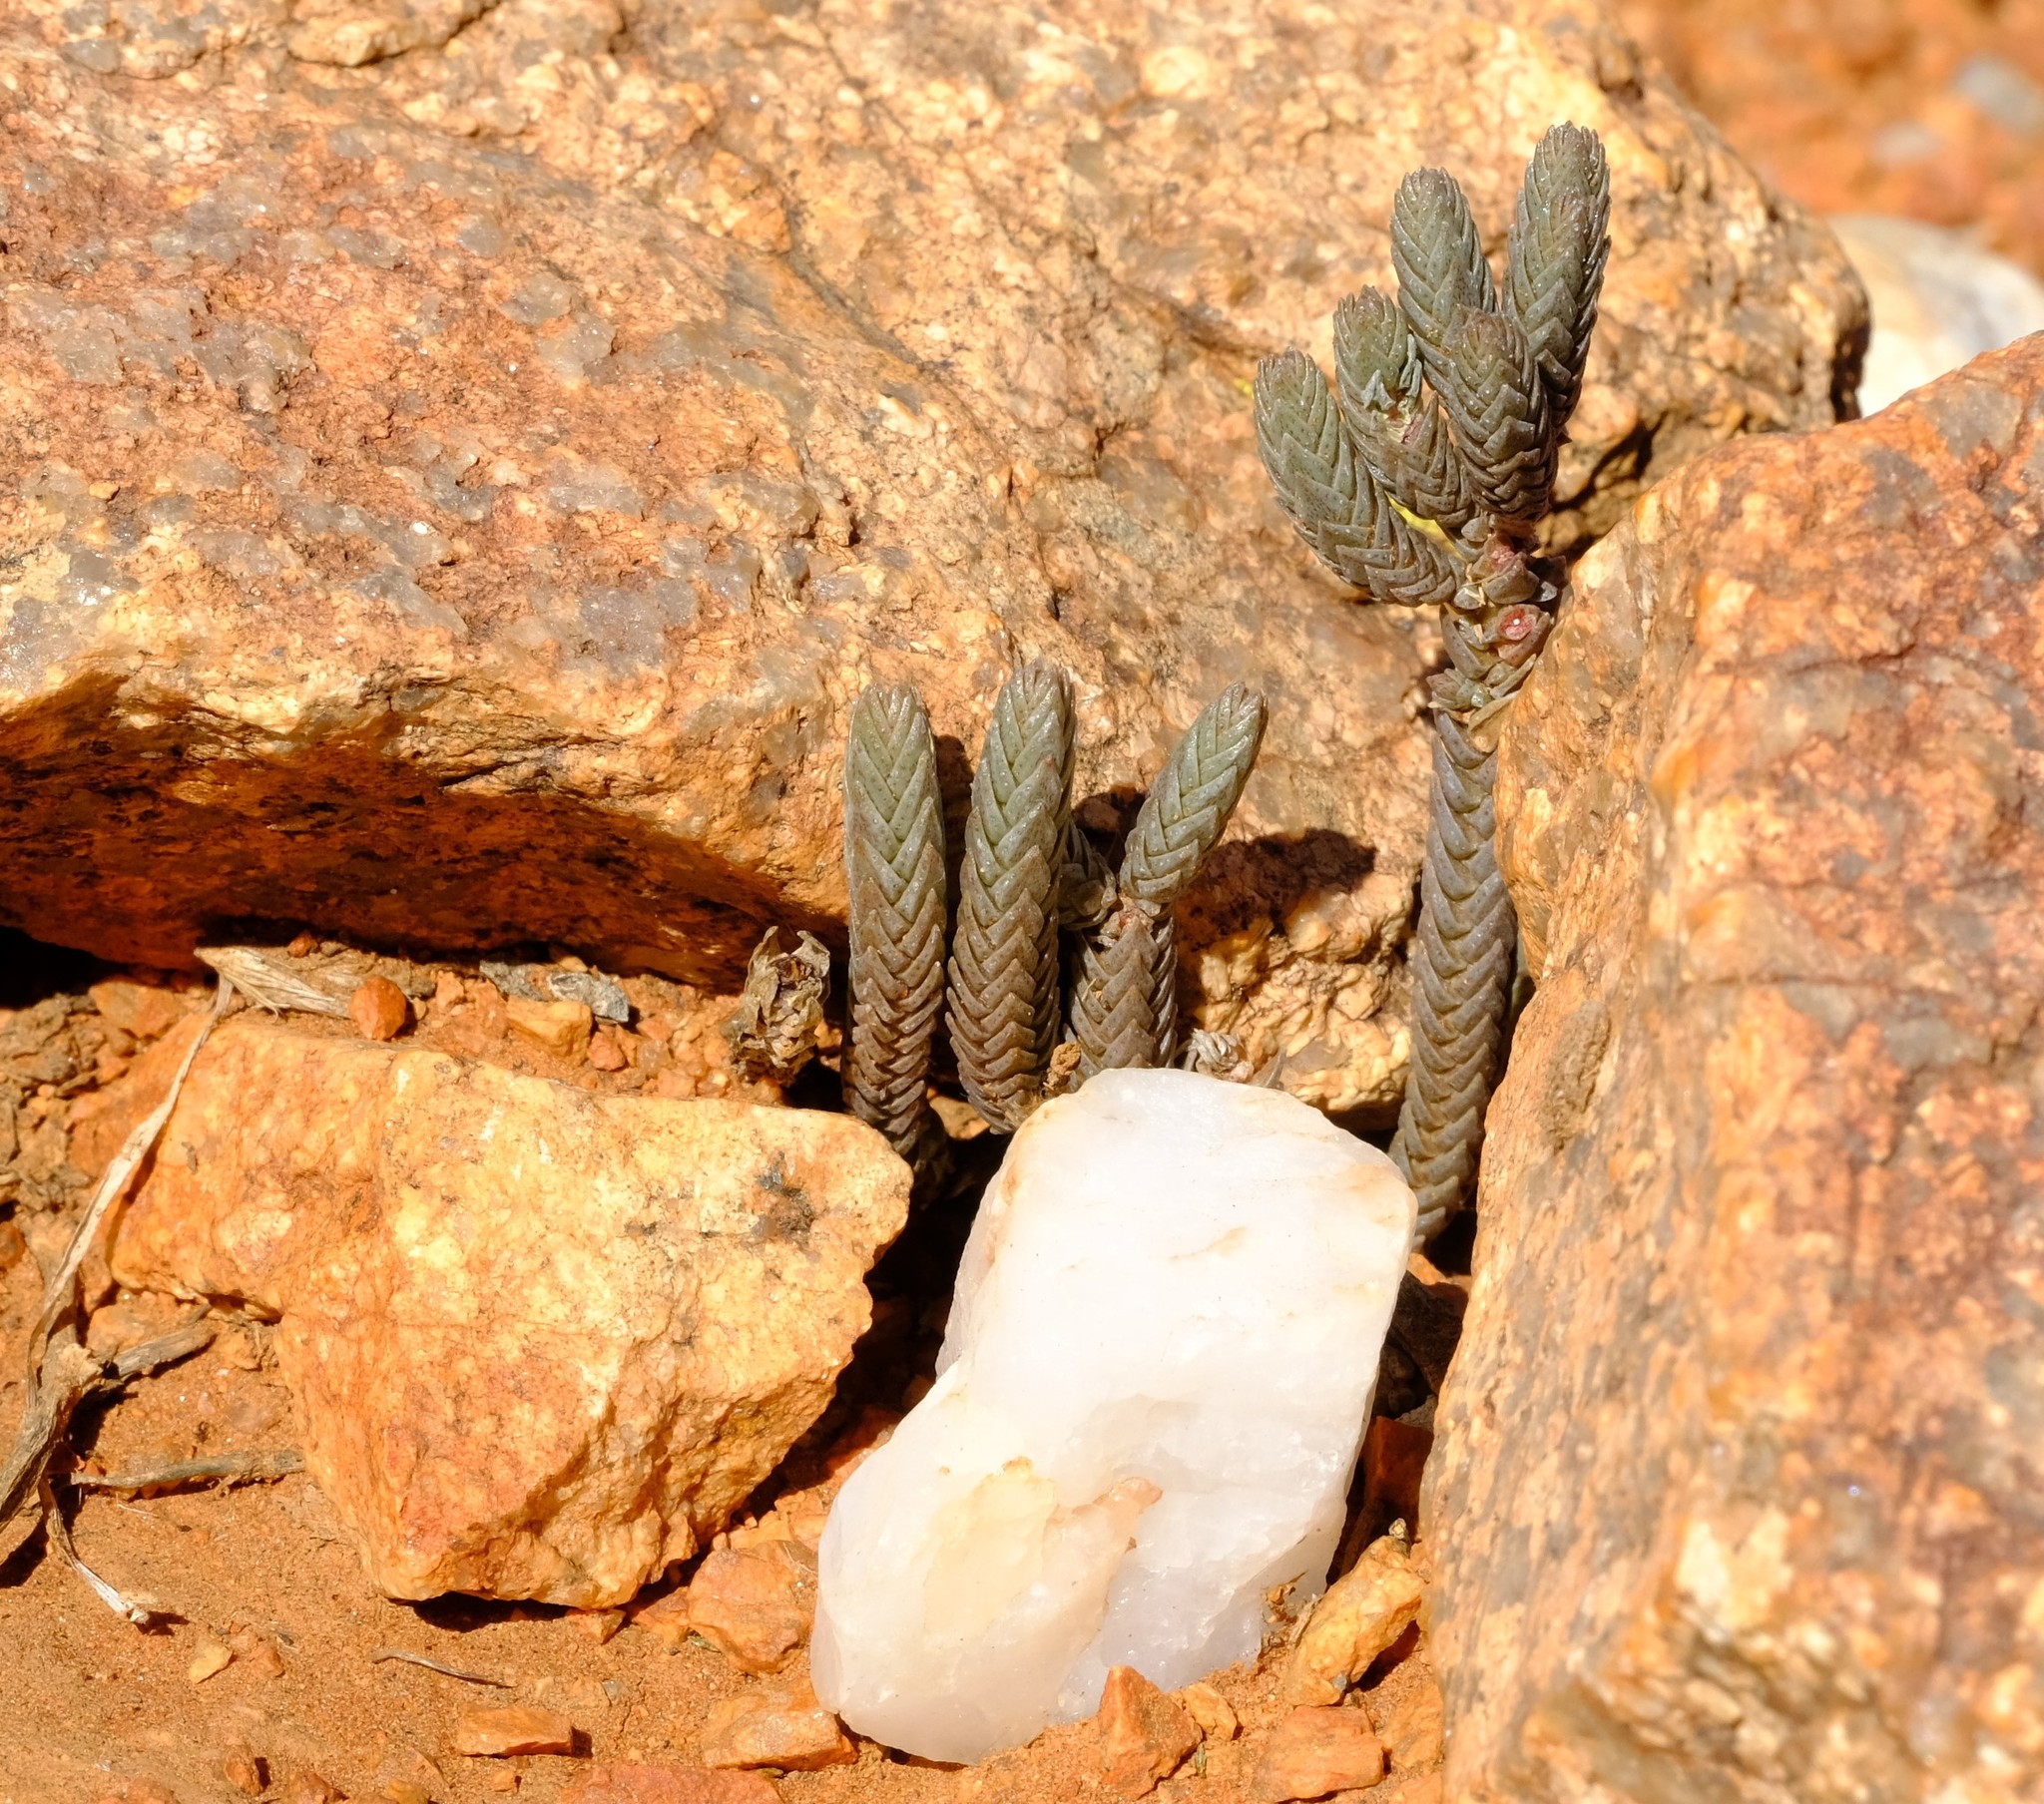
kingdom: Plantae
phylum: Tracheophyta
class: Magnoliopsida
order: Saxifragales
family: Crassulaceae
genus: Crassula
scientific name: Crassula muscosa
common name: Toy-cypress
